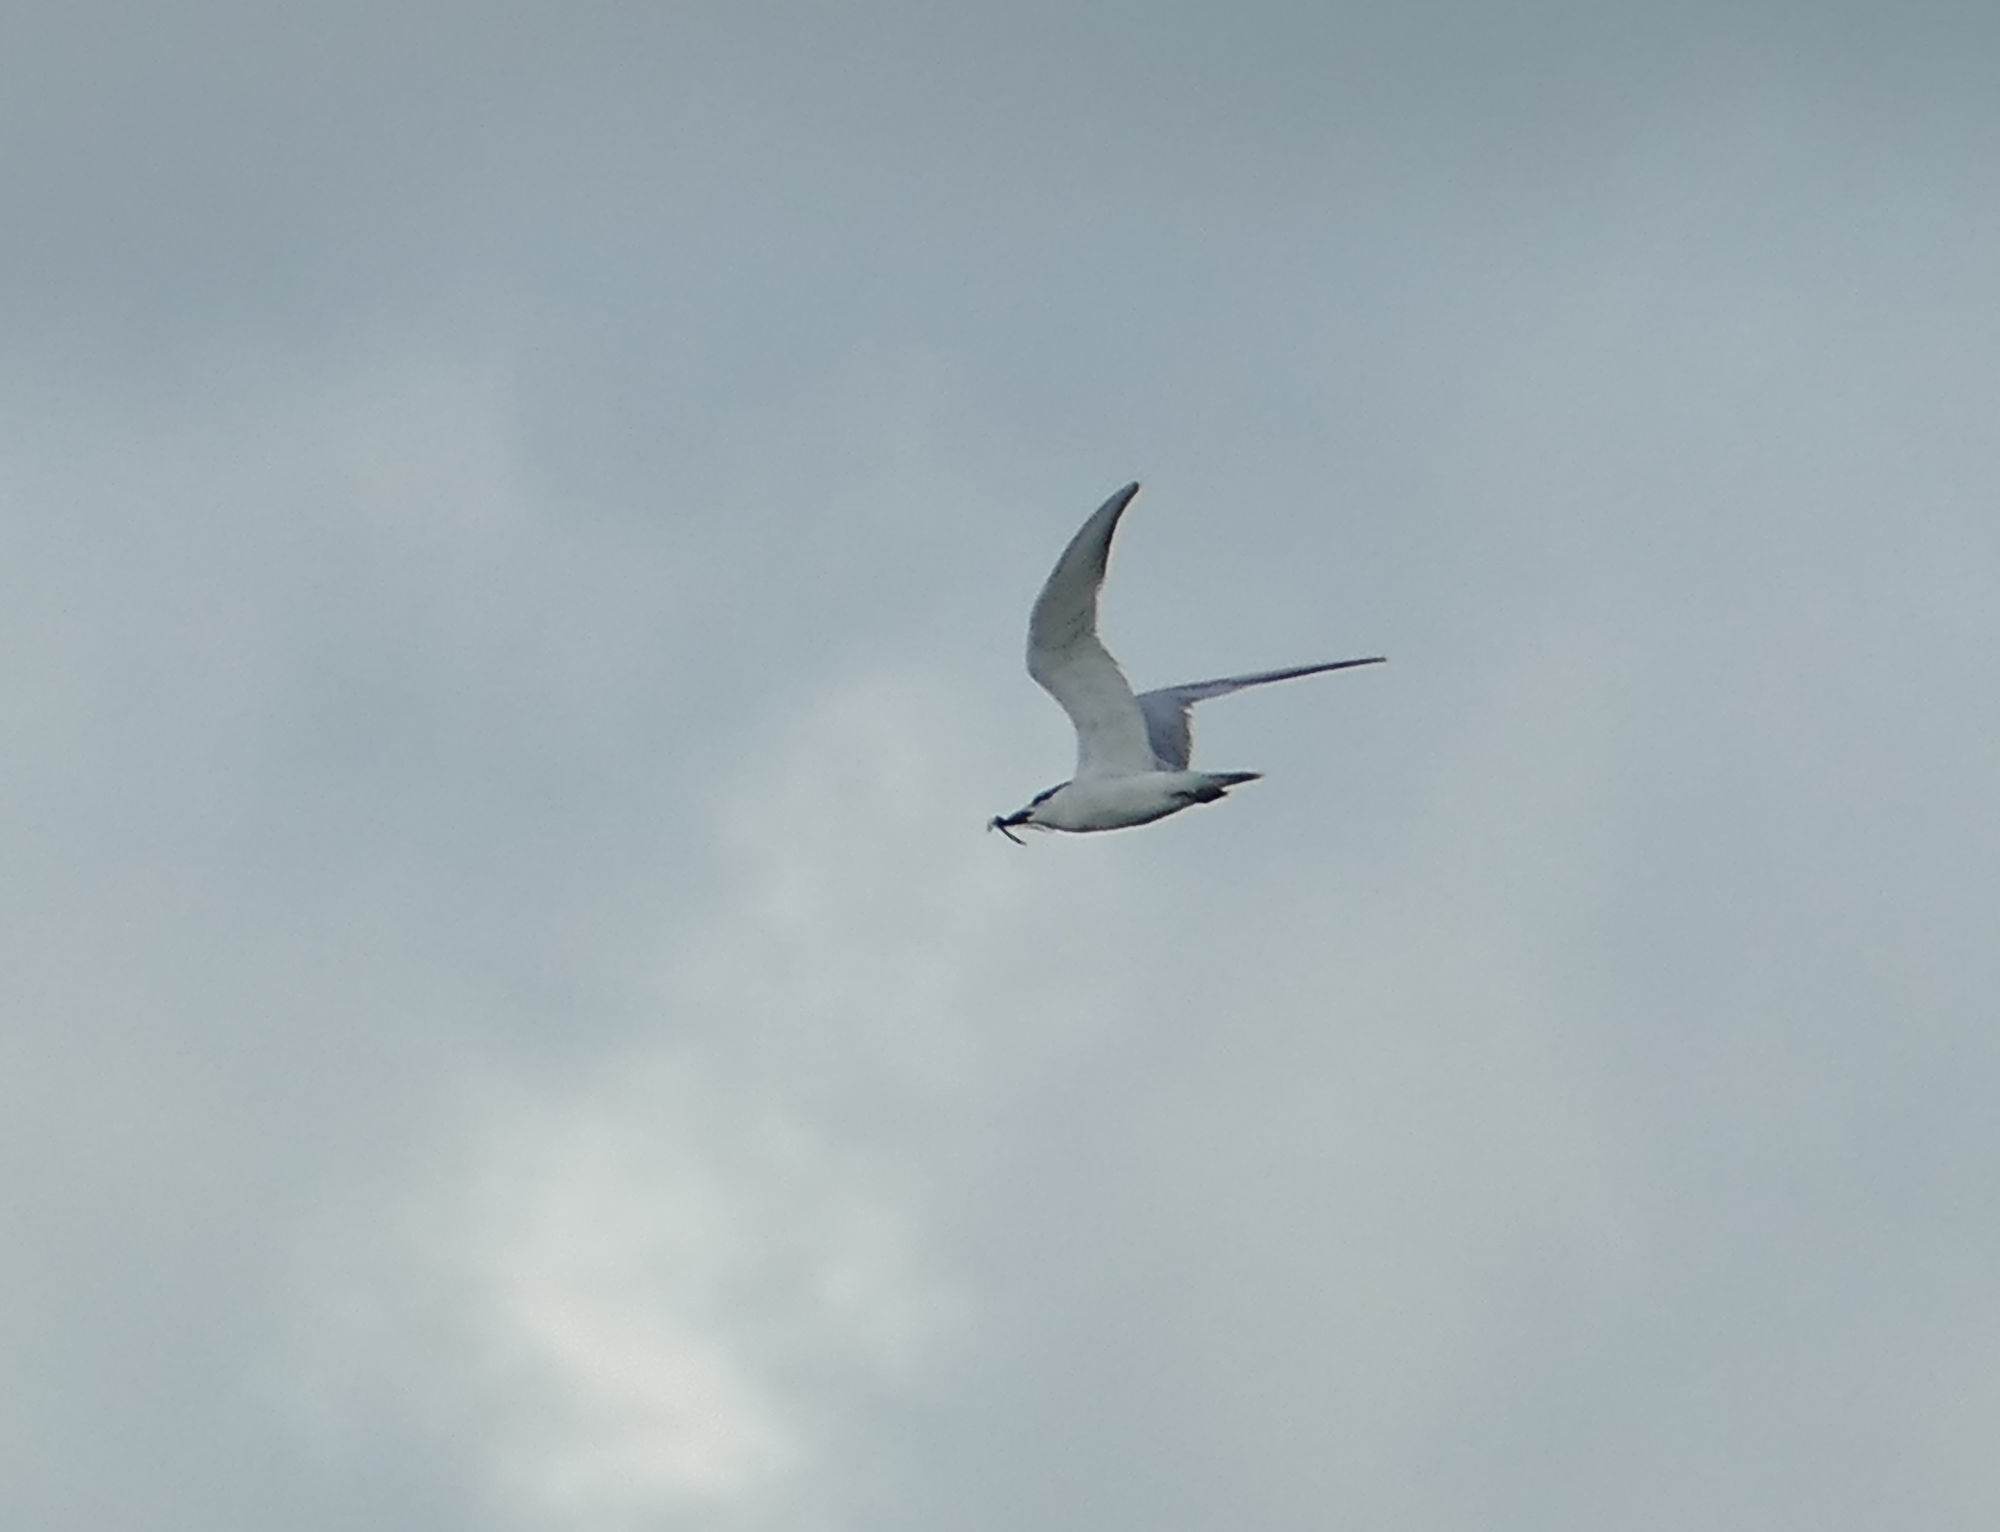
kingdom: Animalia
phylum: Chordata
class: Aves
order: Charadriiformes
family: Laridae
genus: Gelochelidon
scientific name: Gelochelidon nilotica
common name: Gull-billed tern
